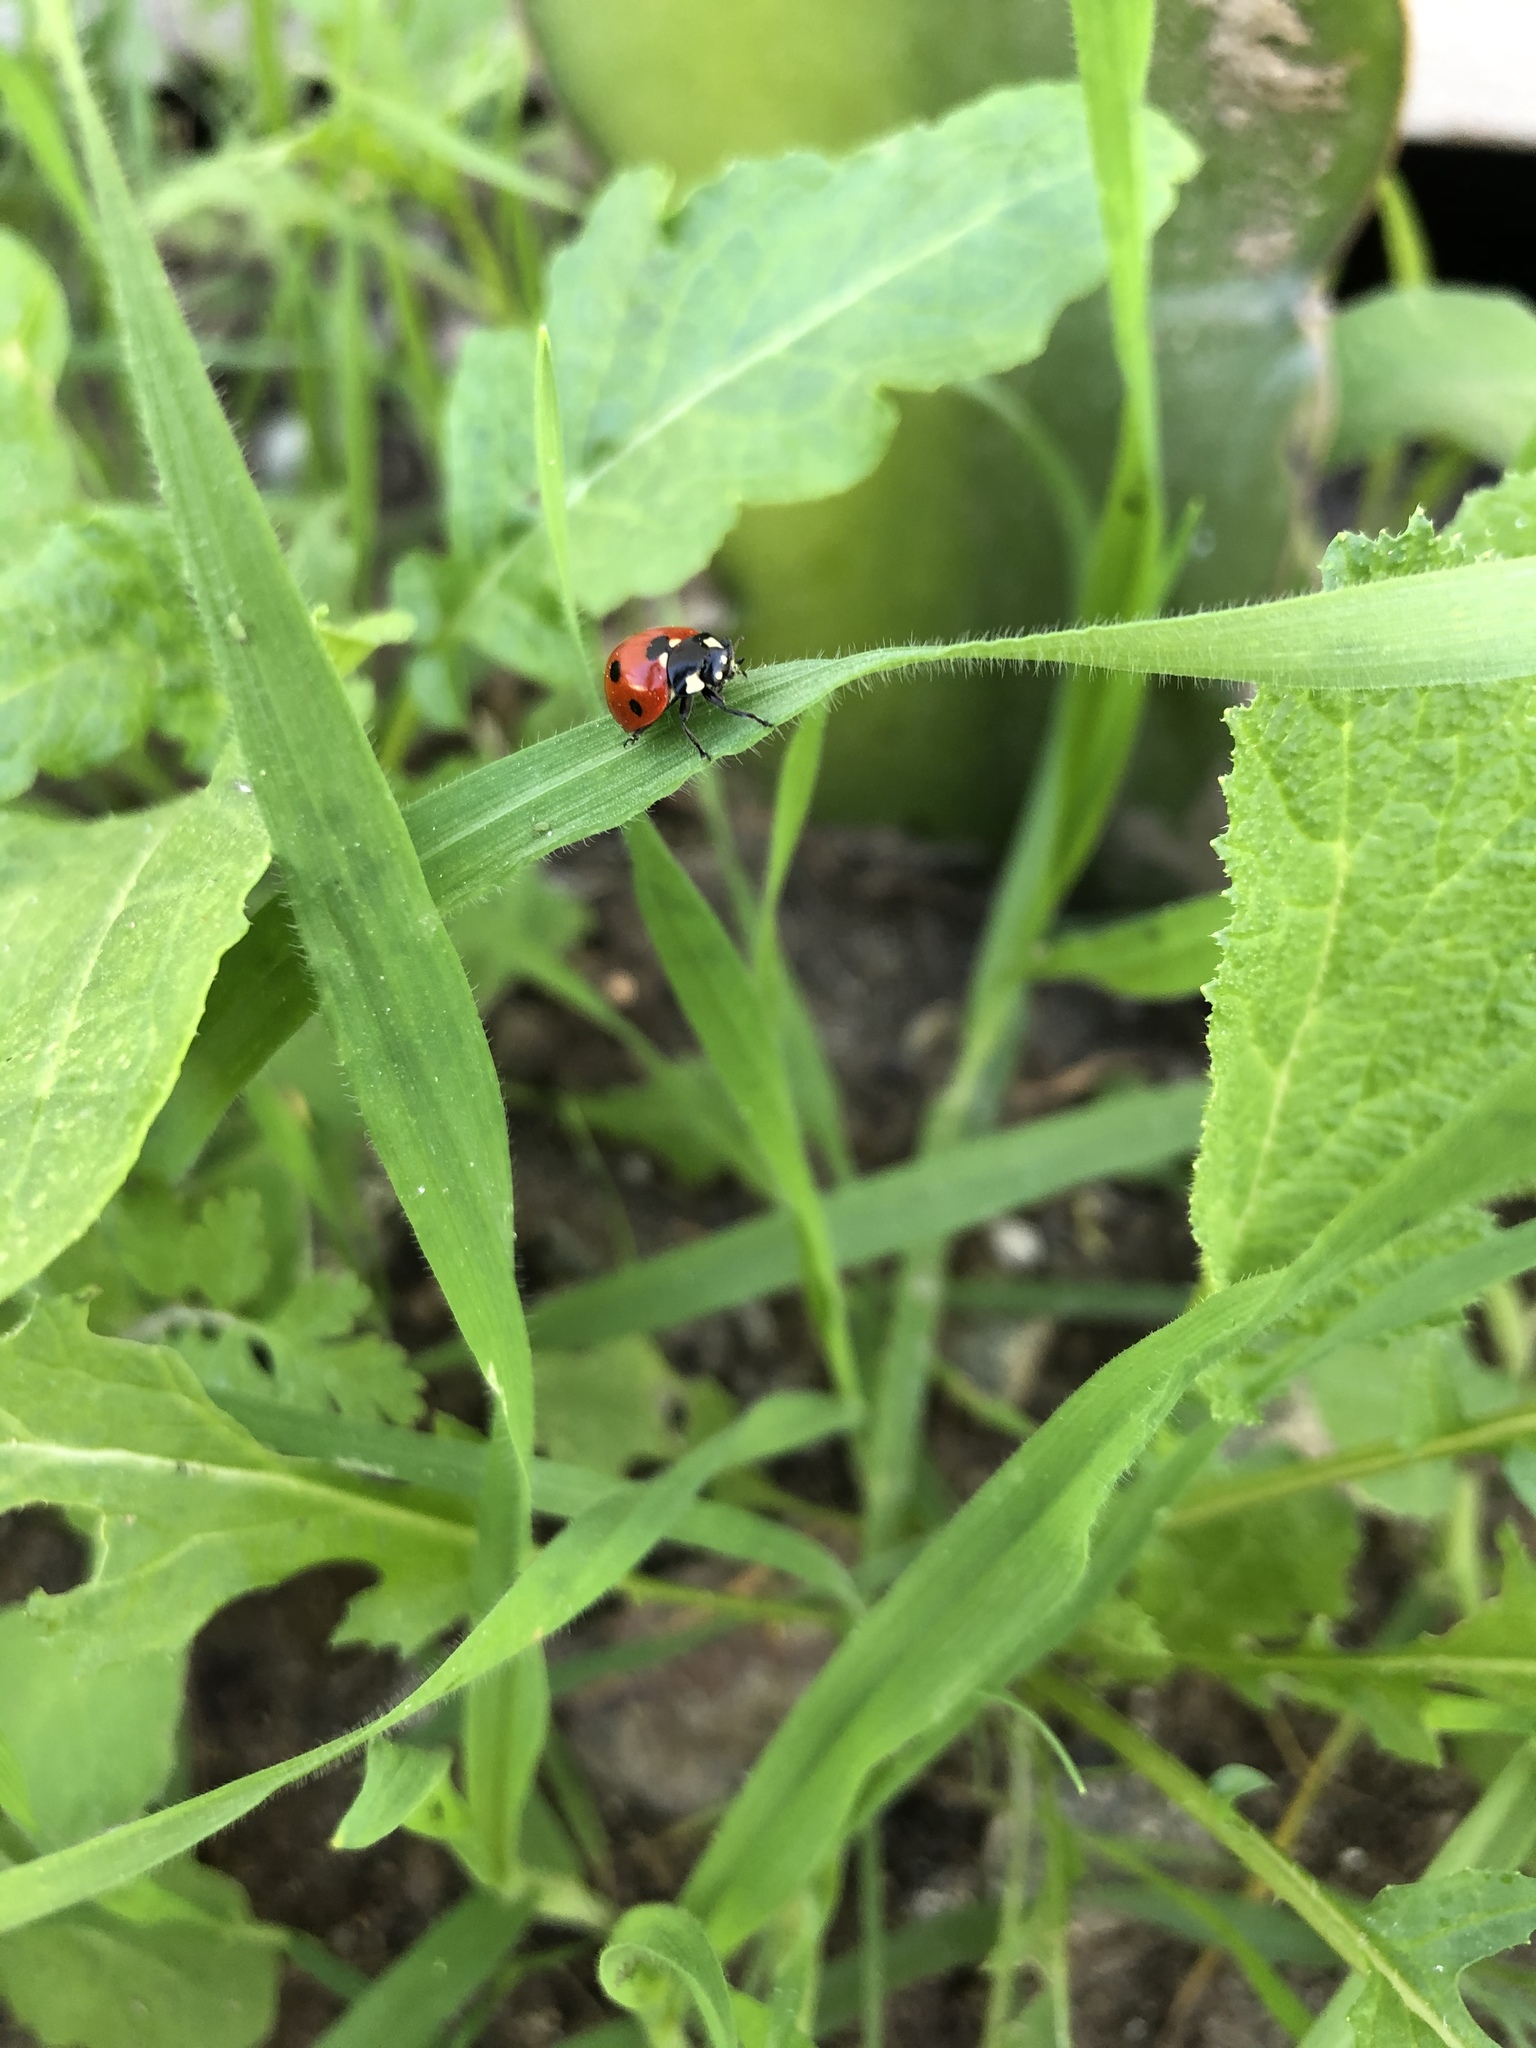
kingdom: Animalia
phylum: Arthropoda
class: Insecta
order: Coleoptera
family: Coccinellidae
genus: Coccinella
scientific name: Coccinella septempunctata
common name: Sevenspotted lady beetle
